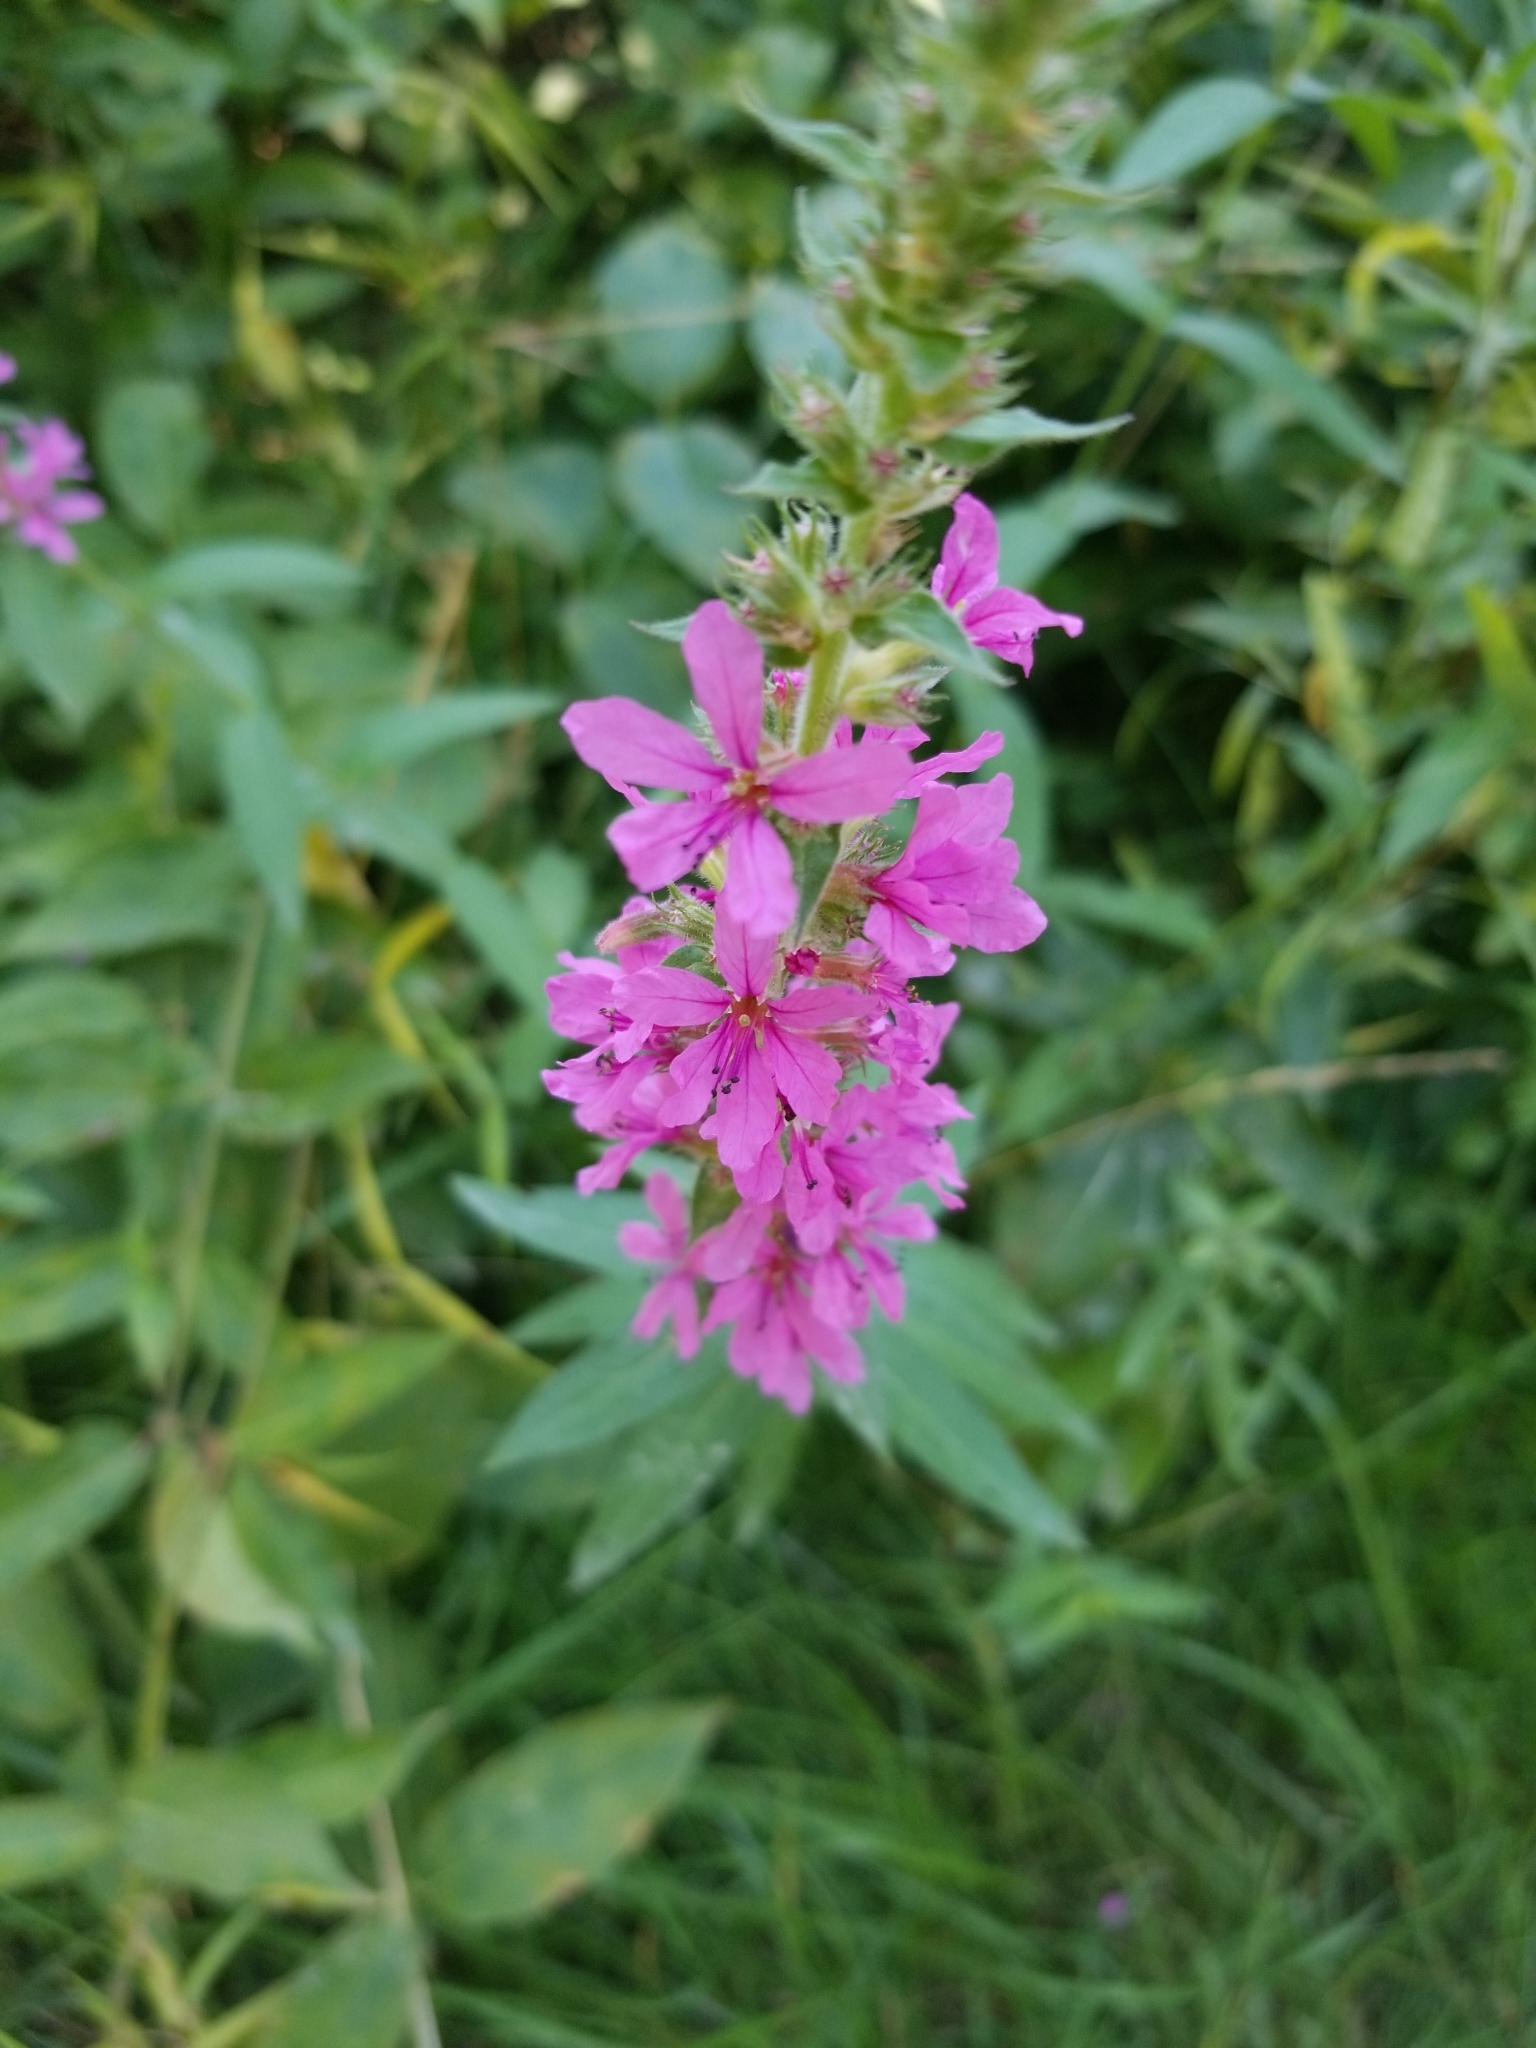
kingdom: Plantae
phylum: Tracheophyta
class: Magnoliopsida
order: Myrtales
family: Lythraceae
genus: Lythrum
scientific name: Lythrum salicaria
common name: Purple loosestrife
